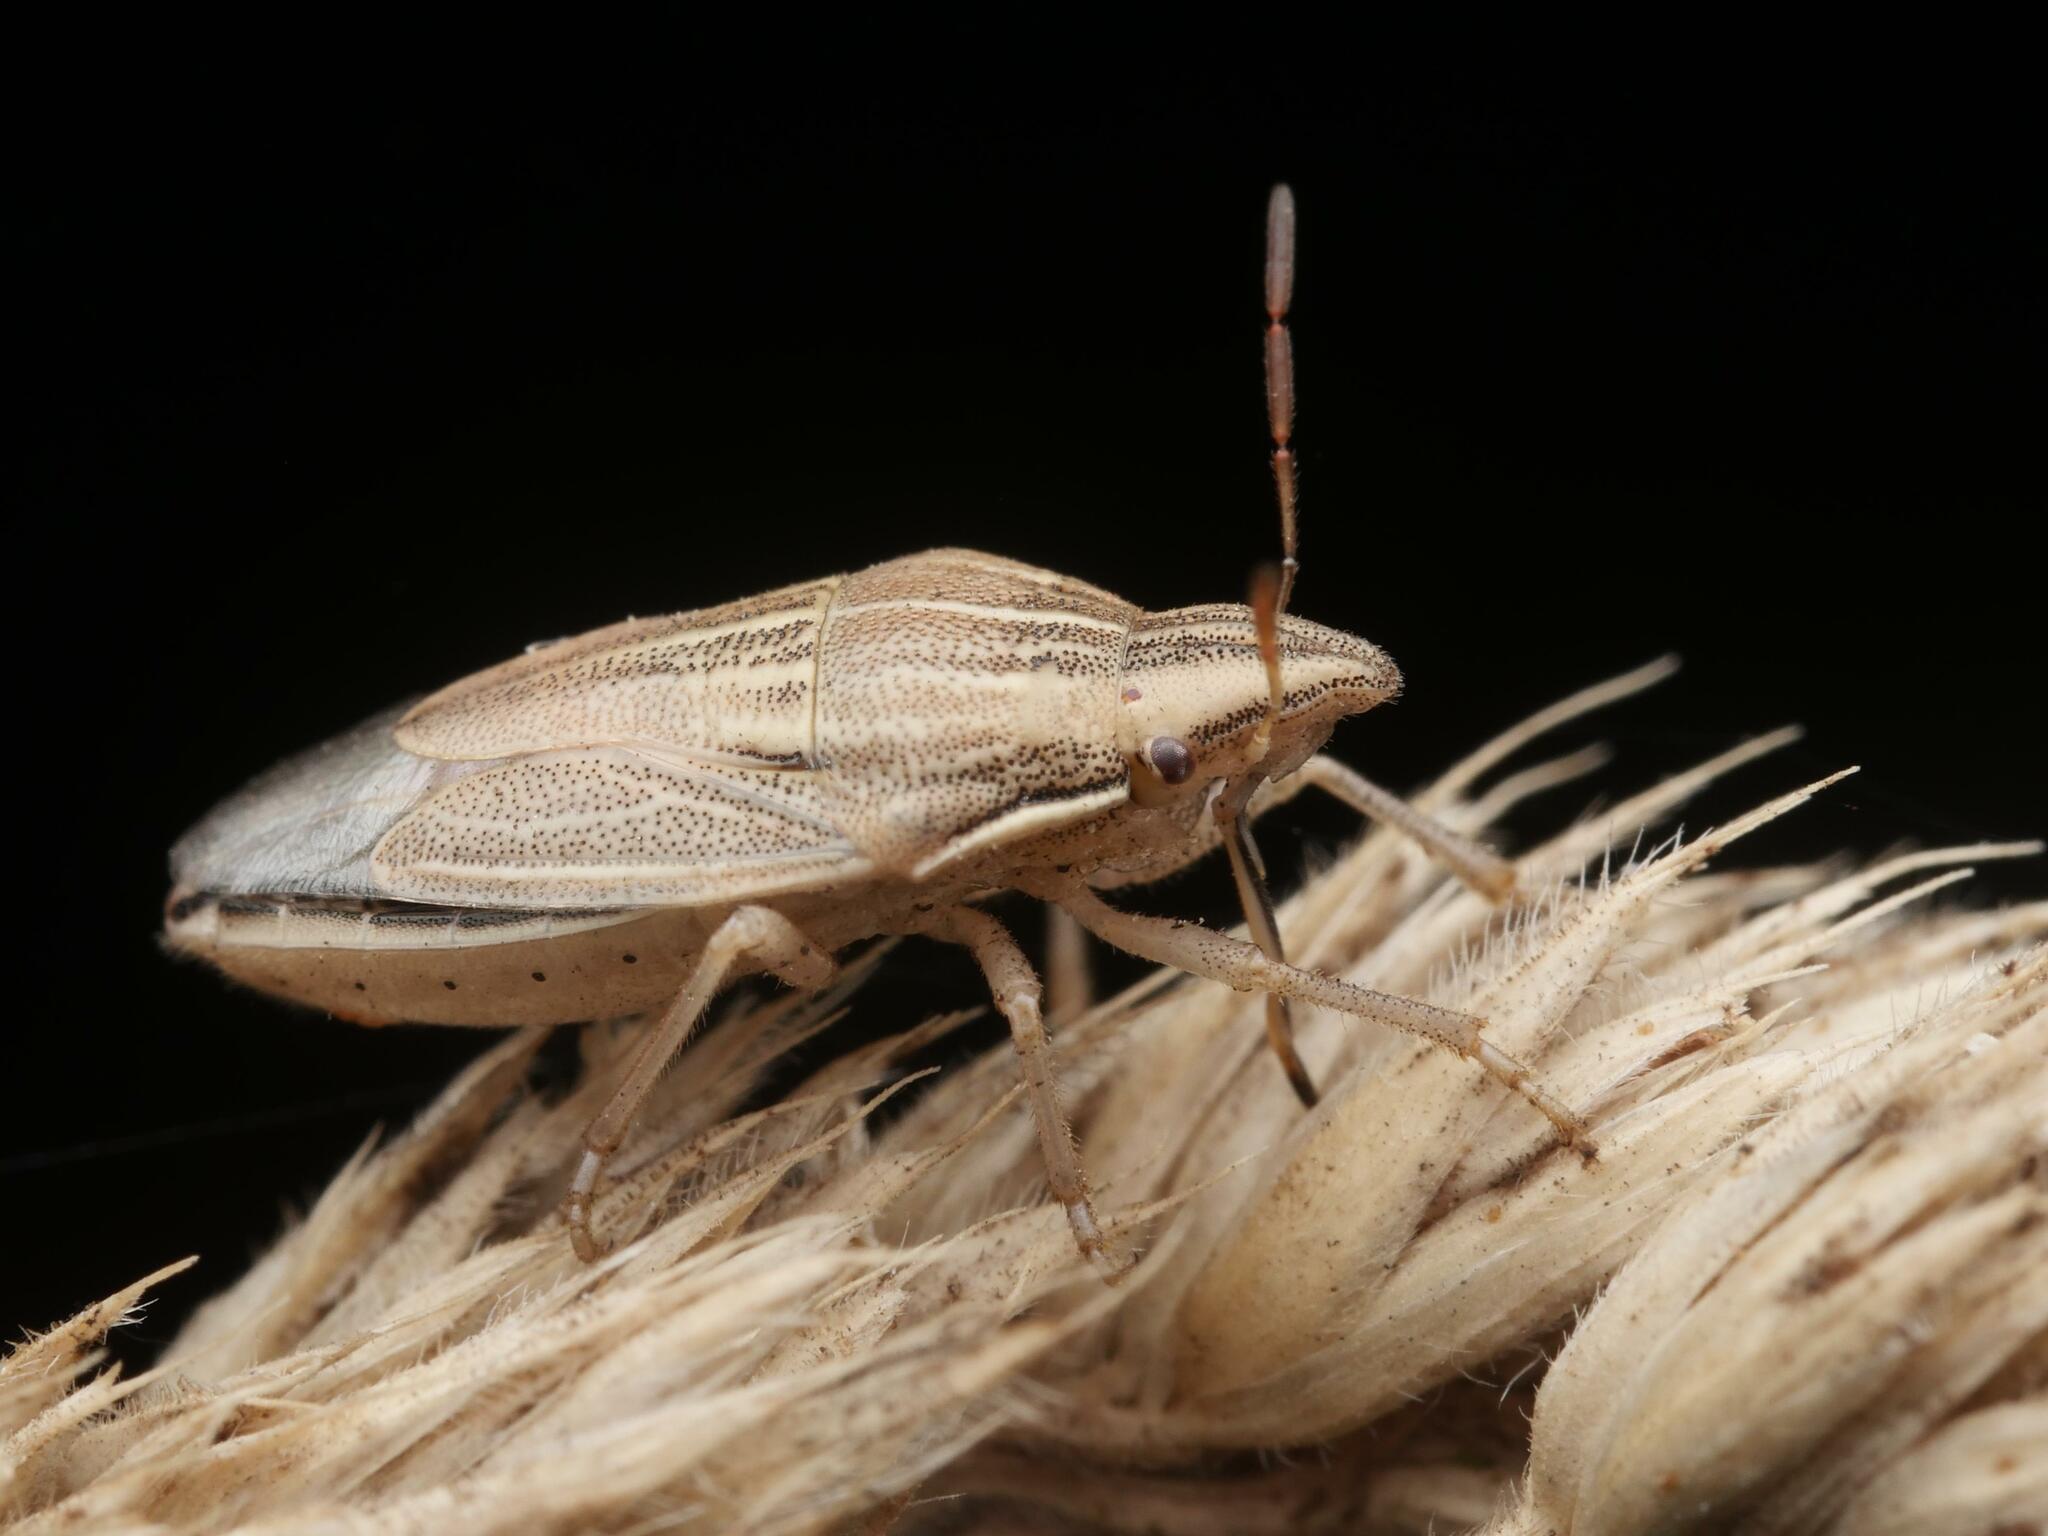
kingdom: Animalia
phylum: Arthropoda
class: Insecta
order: Hemiptera
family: Pentatomidae
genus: Aelia
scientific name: Aelia acuminata
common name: Bishop's mitre
